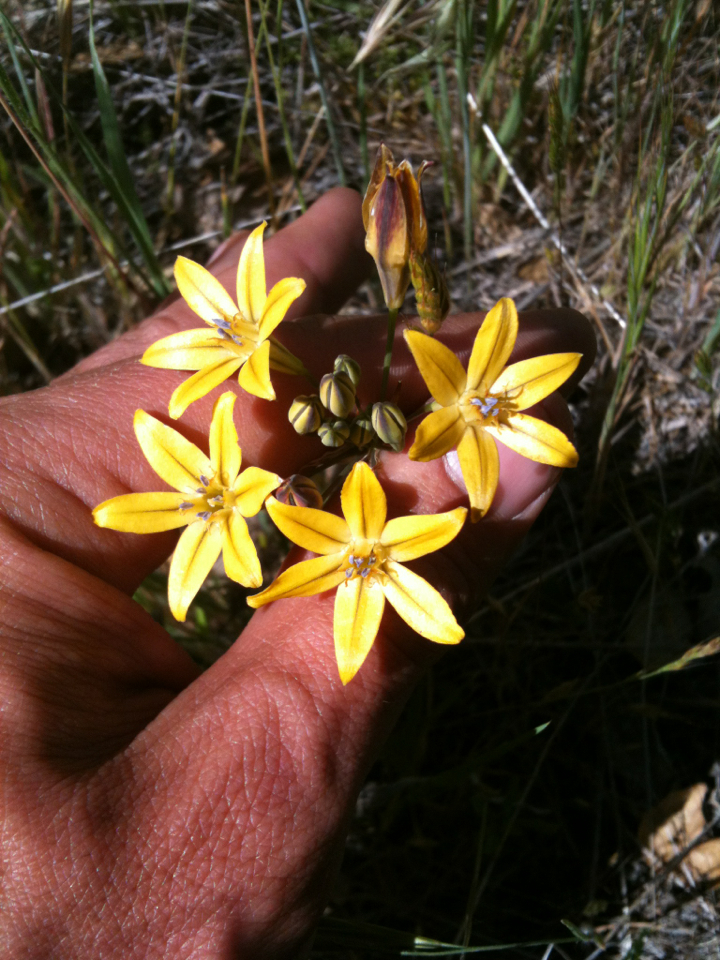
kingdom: Plantae
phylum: Tracheophyta
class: Liliopsida
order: Asparagales
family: Asparagaceae
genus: Triteleia
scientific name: Triteleia ixioides
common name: Yellow-brodiaea
